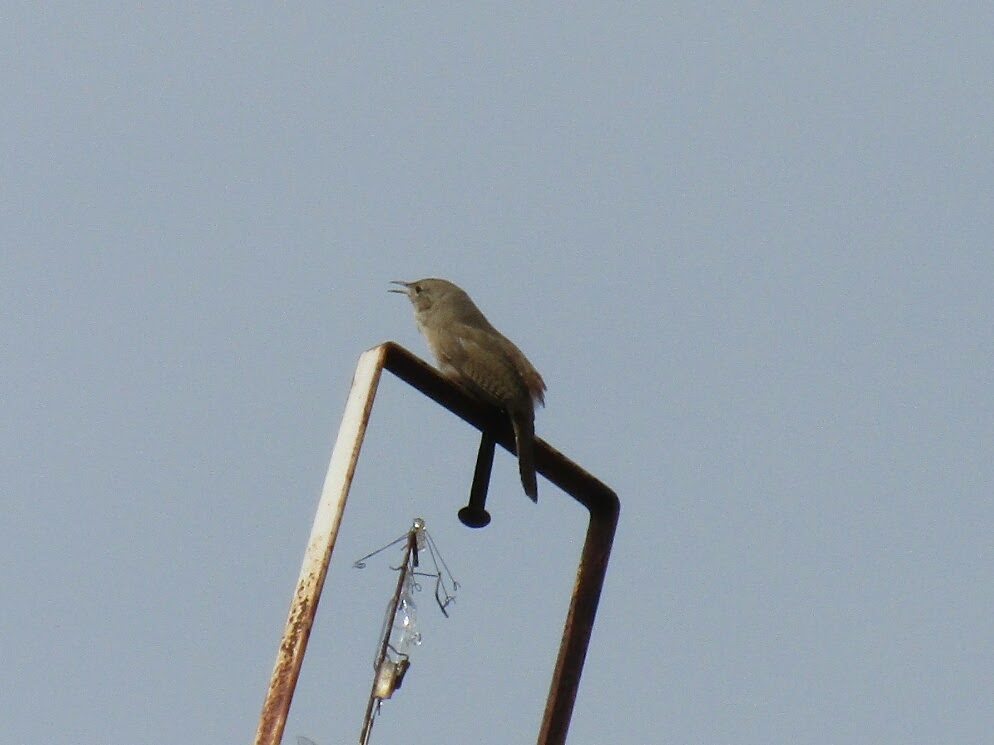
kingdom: Animalia
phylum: Chordata
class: Aves
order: Passeriformes
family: Troglodytidae
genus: Troglodytes
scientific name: Troglodytes aedon
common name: House wren
